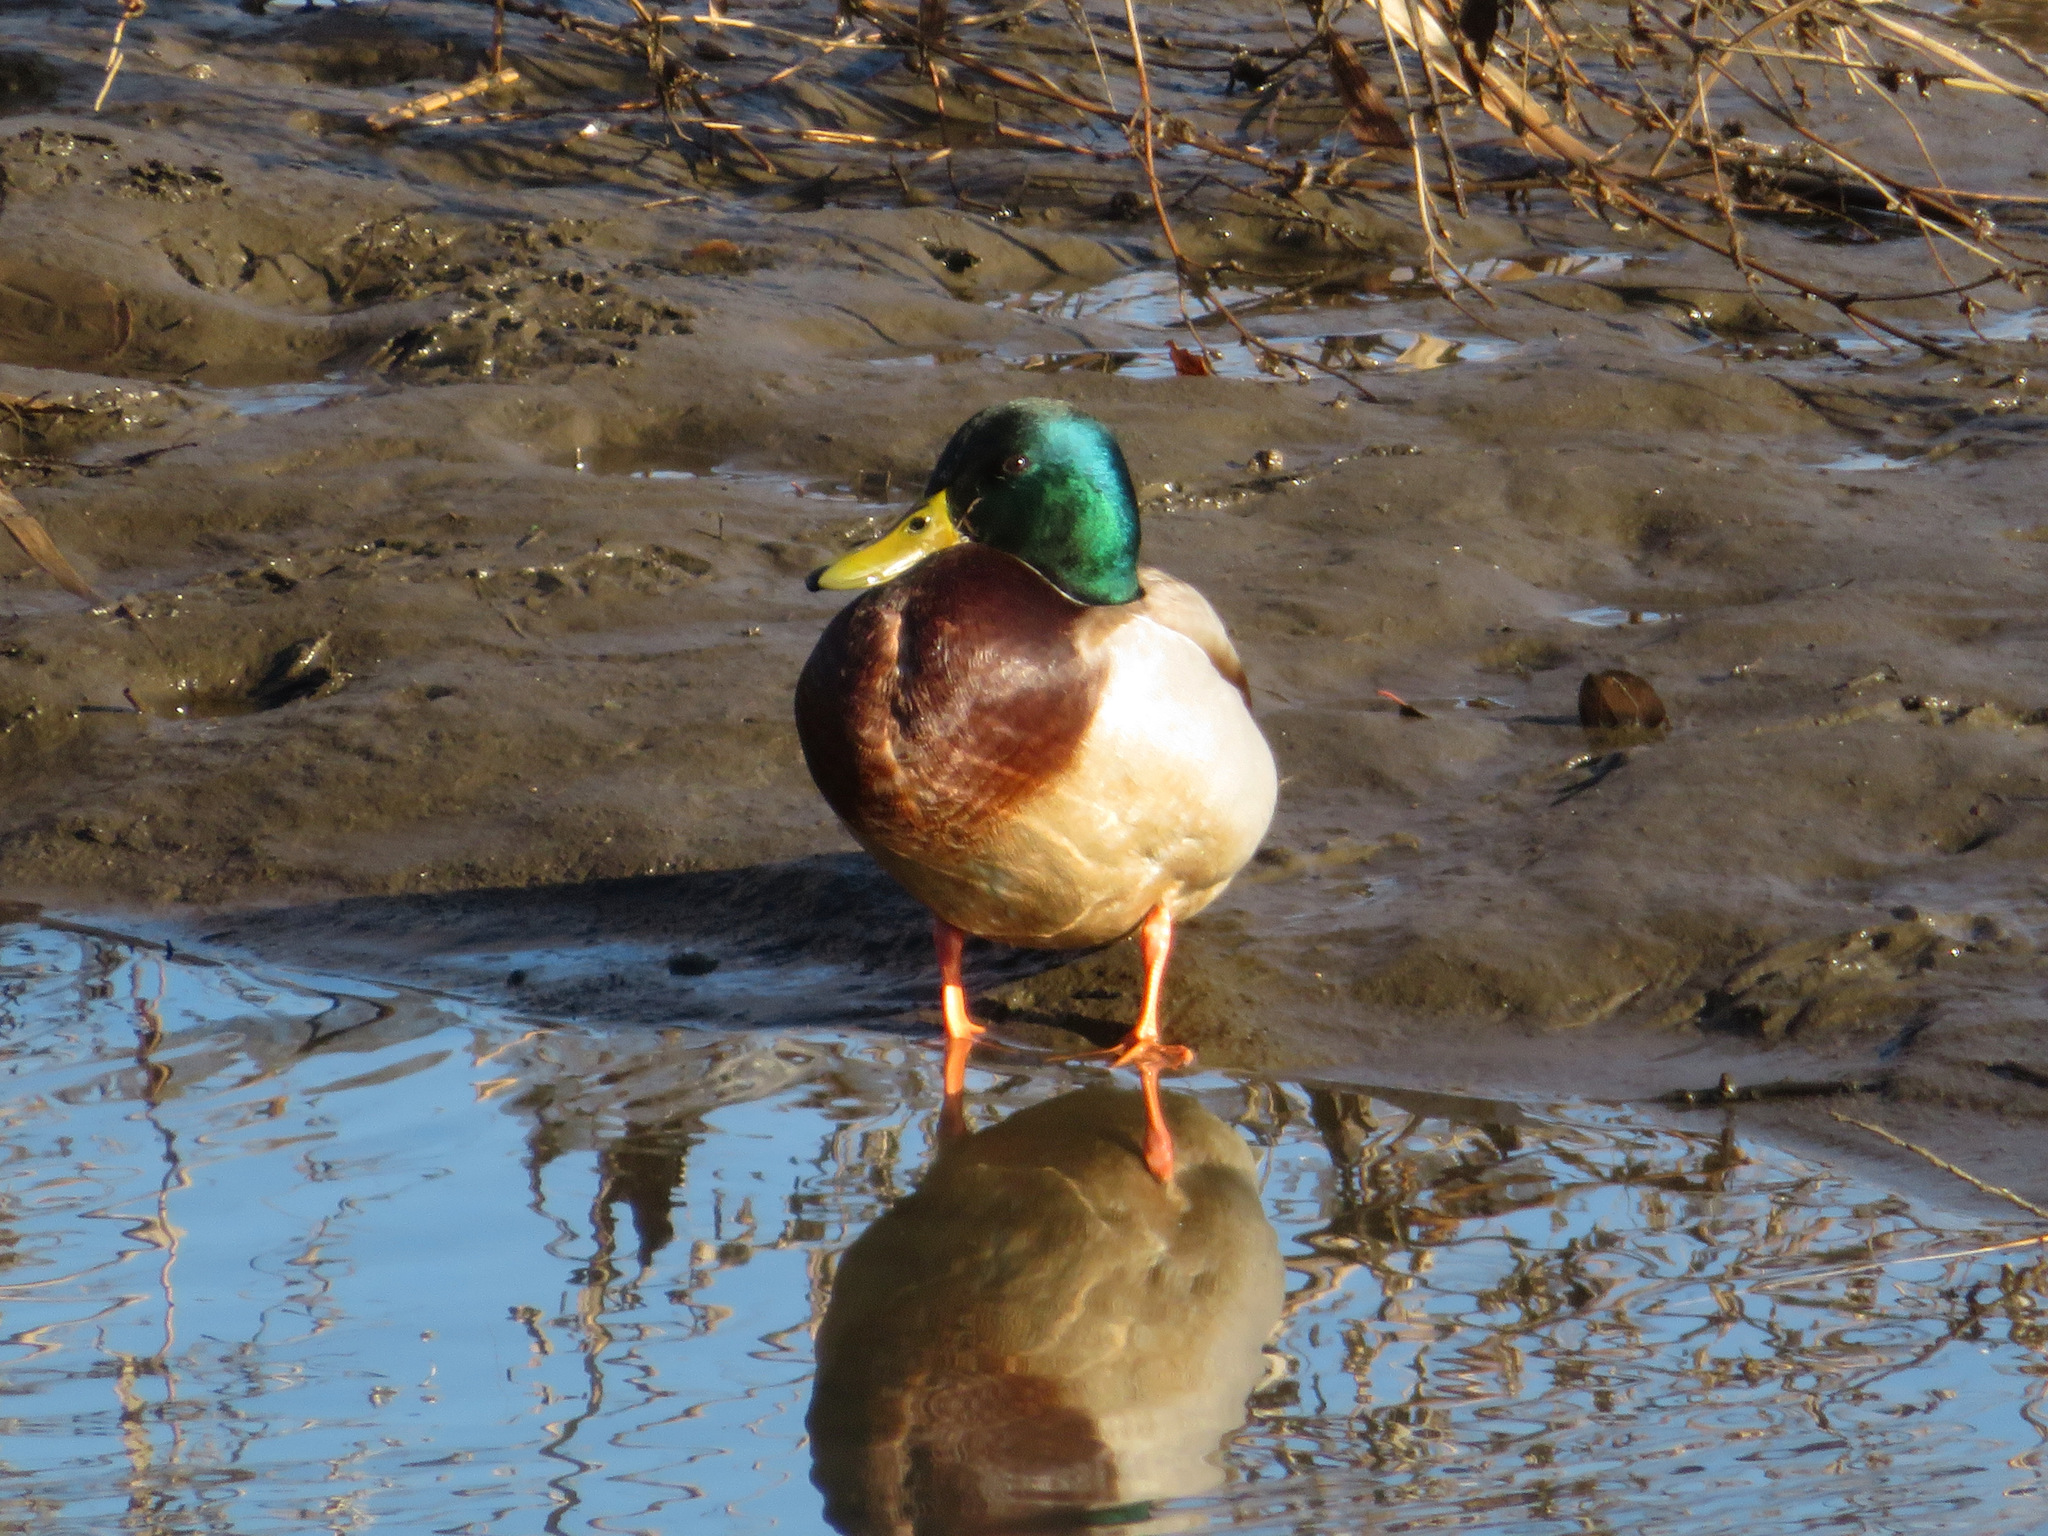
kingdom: Animalia
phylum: Chordata
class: Aves
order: Anseriformes
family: Anatidae
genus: Anas
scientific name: Anas platyrhynchos
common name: Mallard
